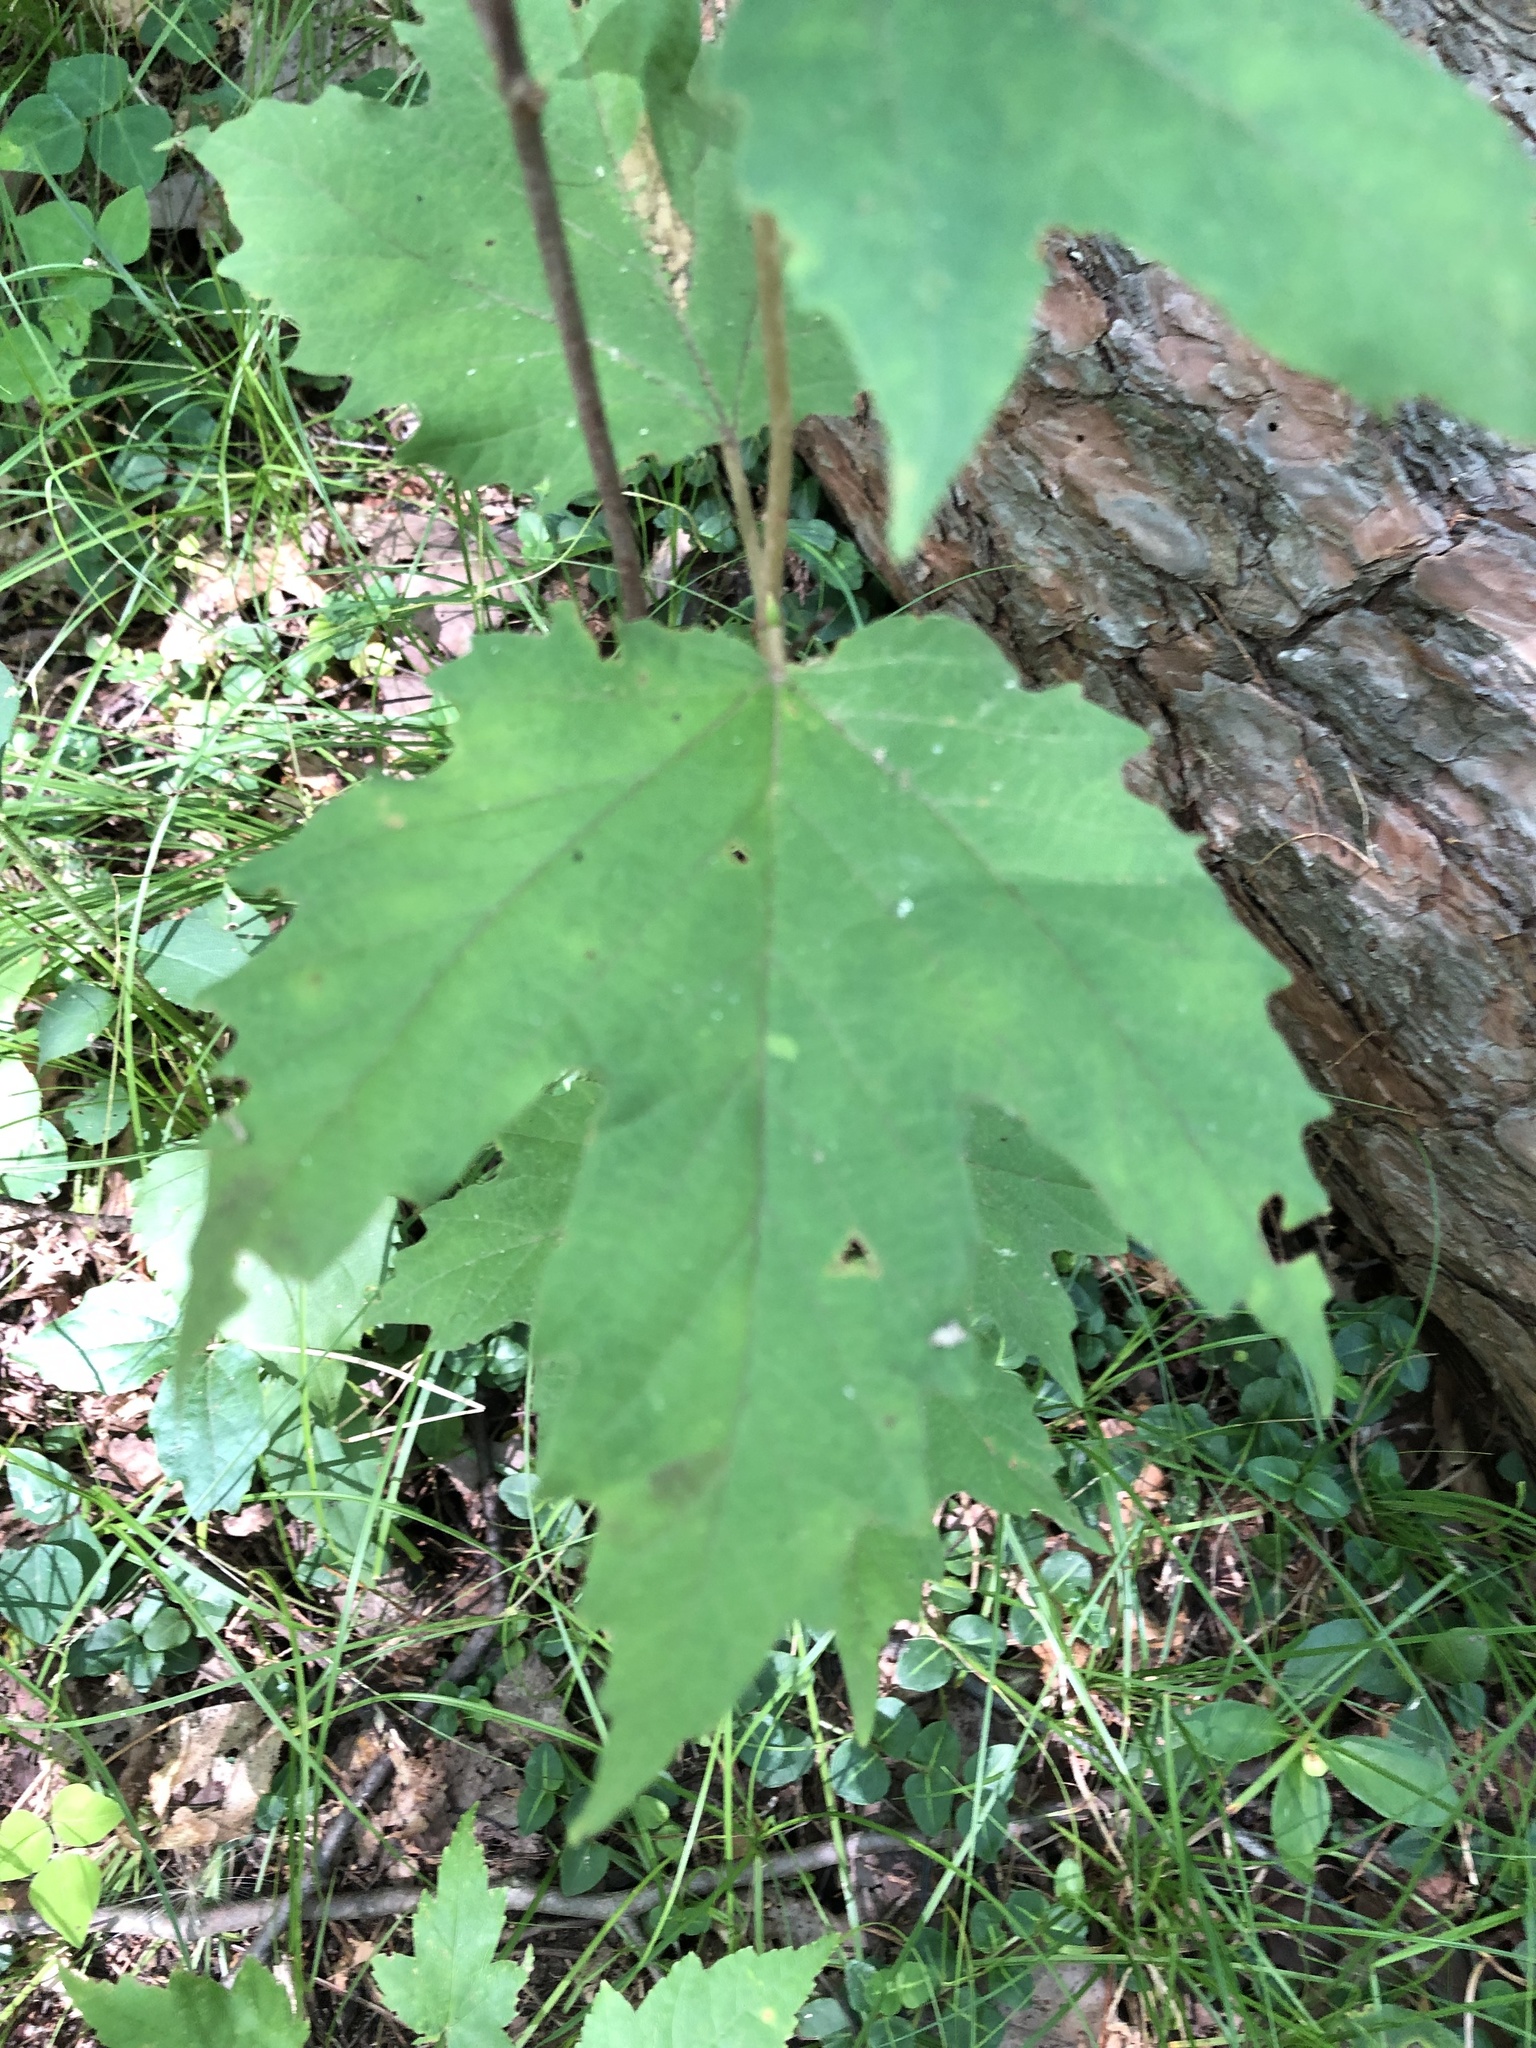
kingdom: Plantae
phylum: Tracheophyta
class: Magnoliopsida
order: Dipsacales
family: Viburnaceae
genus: Viburnum
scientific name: Viburnum acerifolium
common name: Dockmackie
